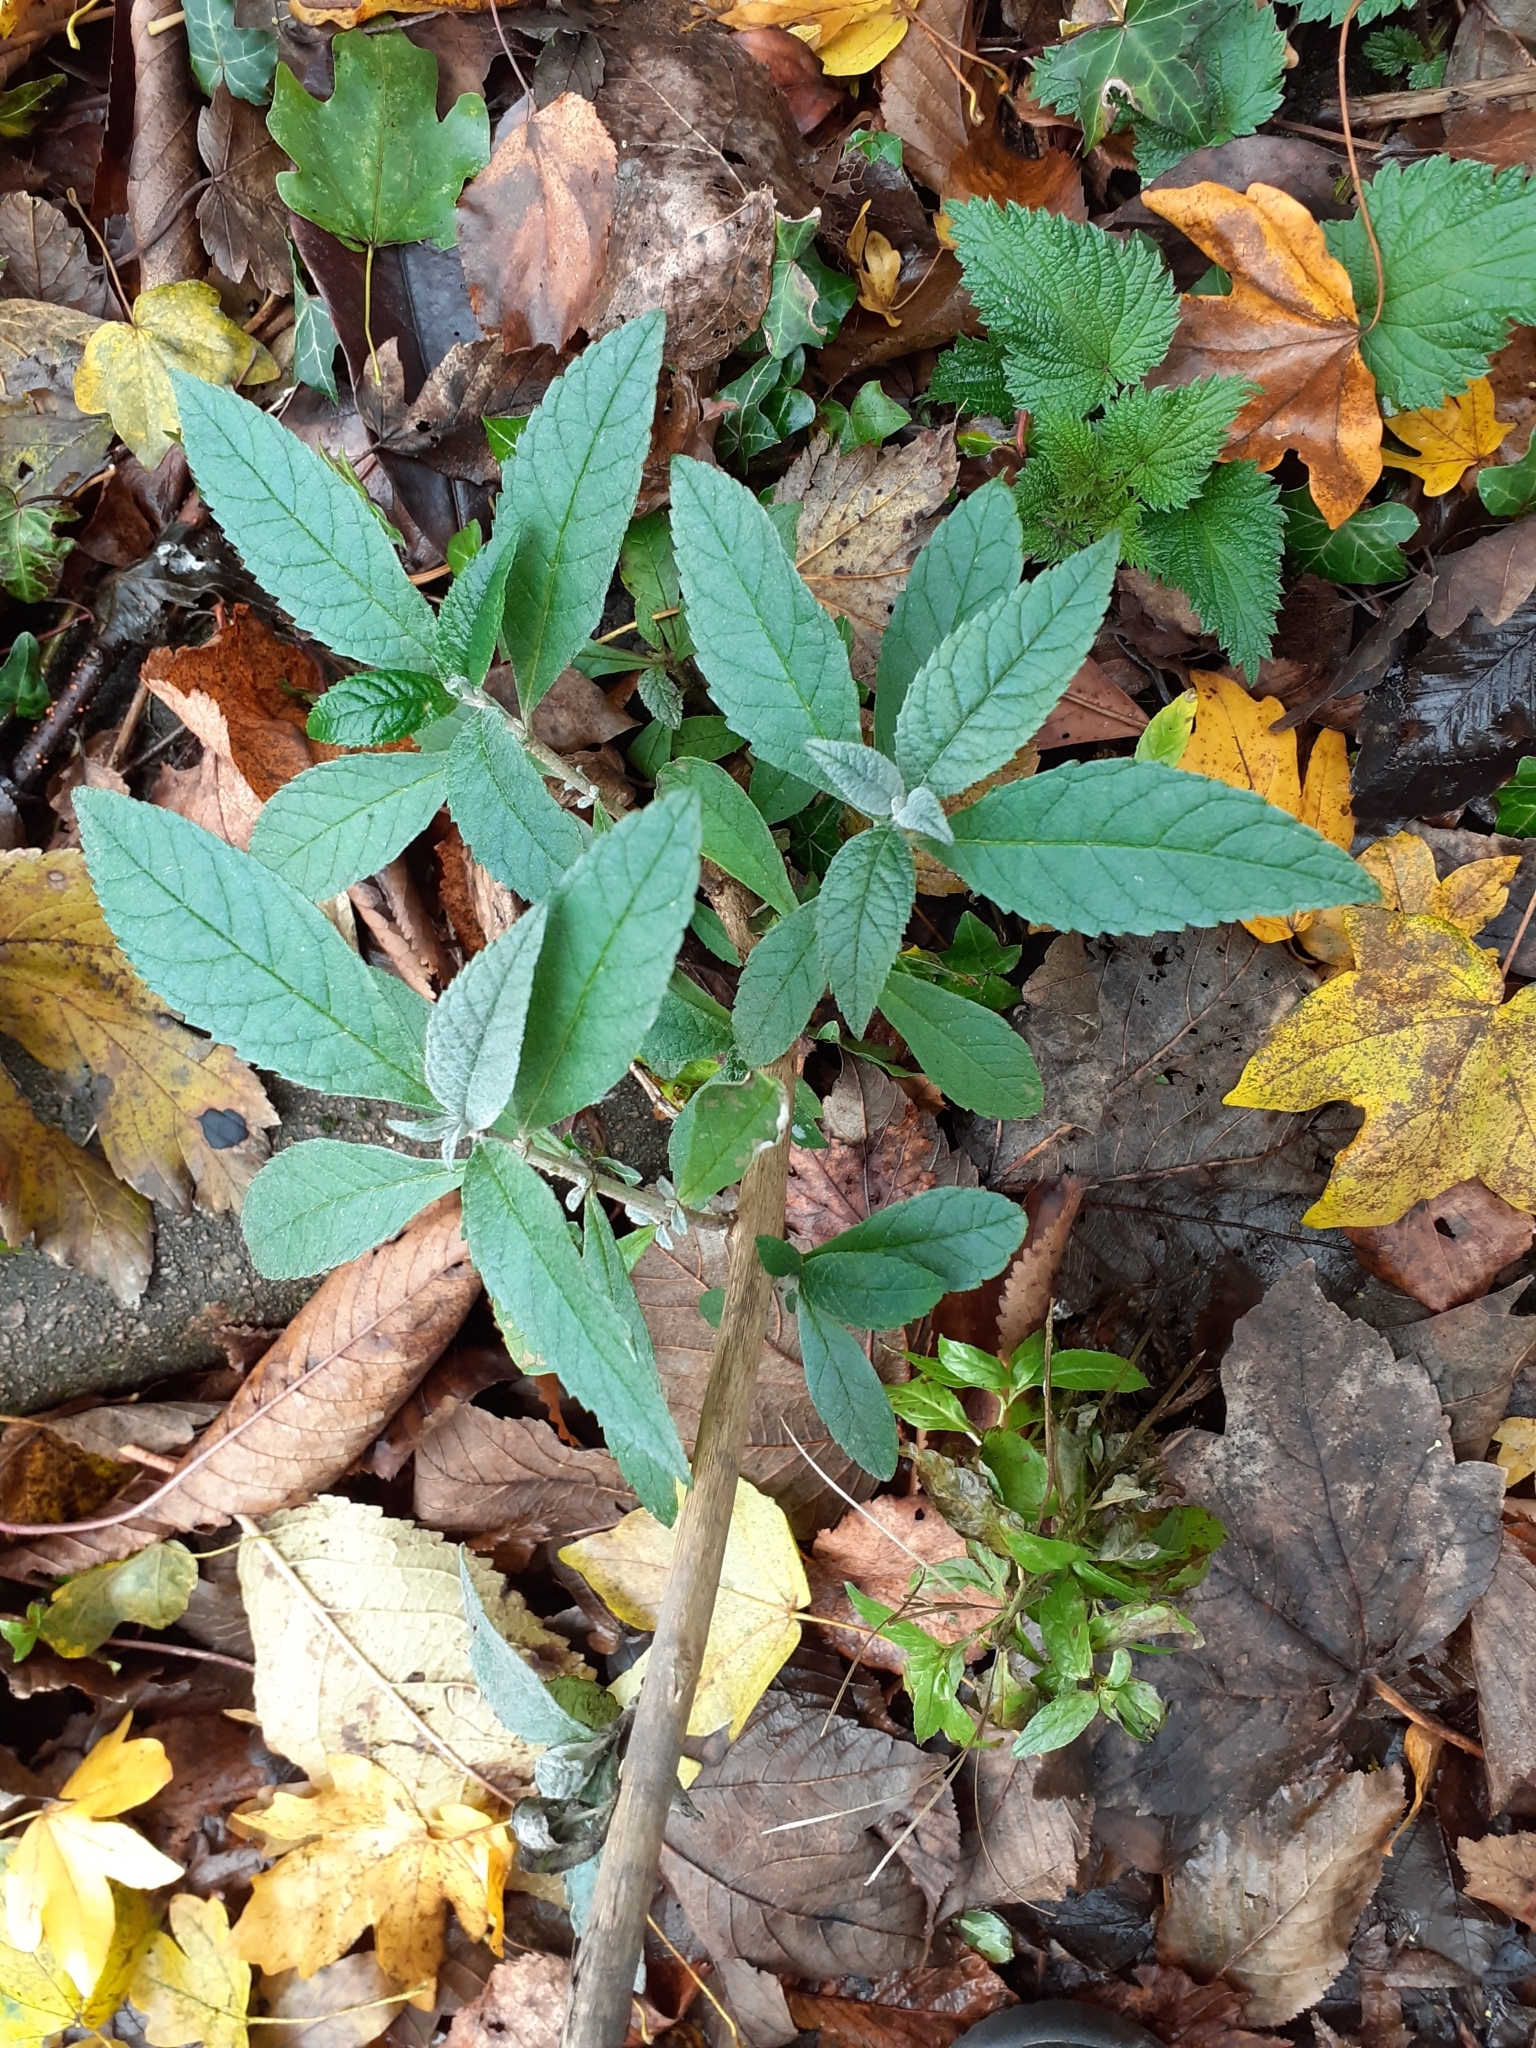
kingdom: Plantae
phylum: Tracheophyta
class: Magnoliopsida
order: Lamiales
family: Scrophulariaceae
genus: Buddleja
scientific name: Buddleja davidii
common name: Butterfly-bush
